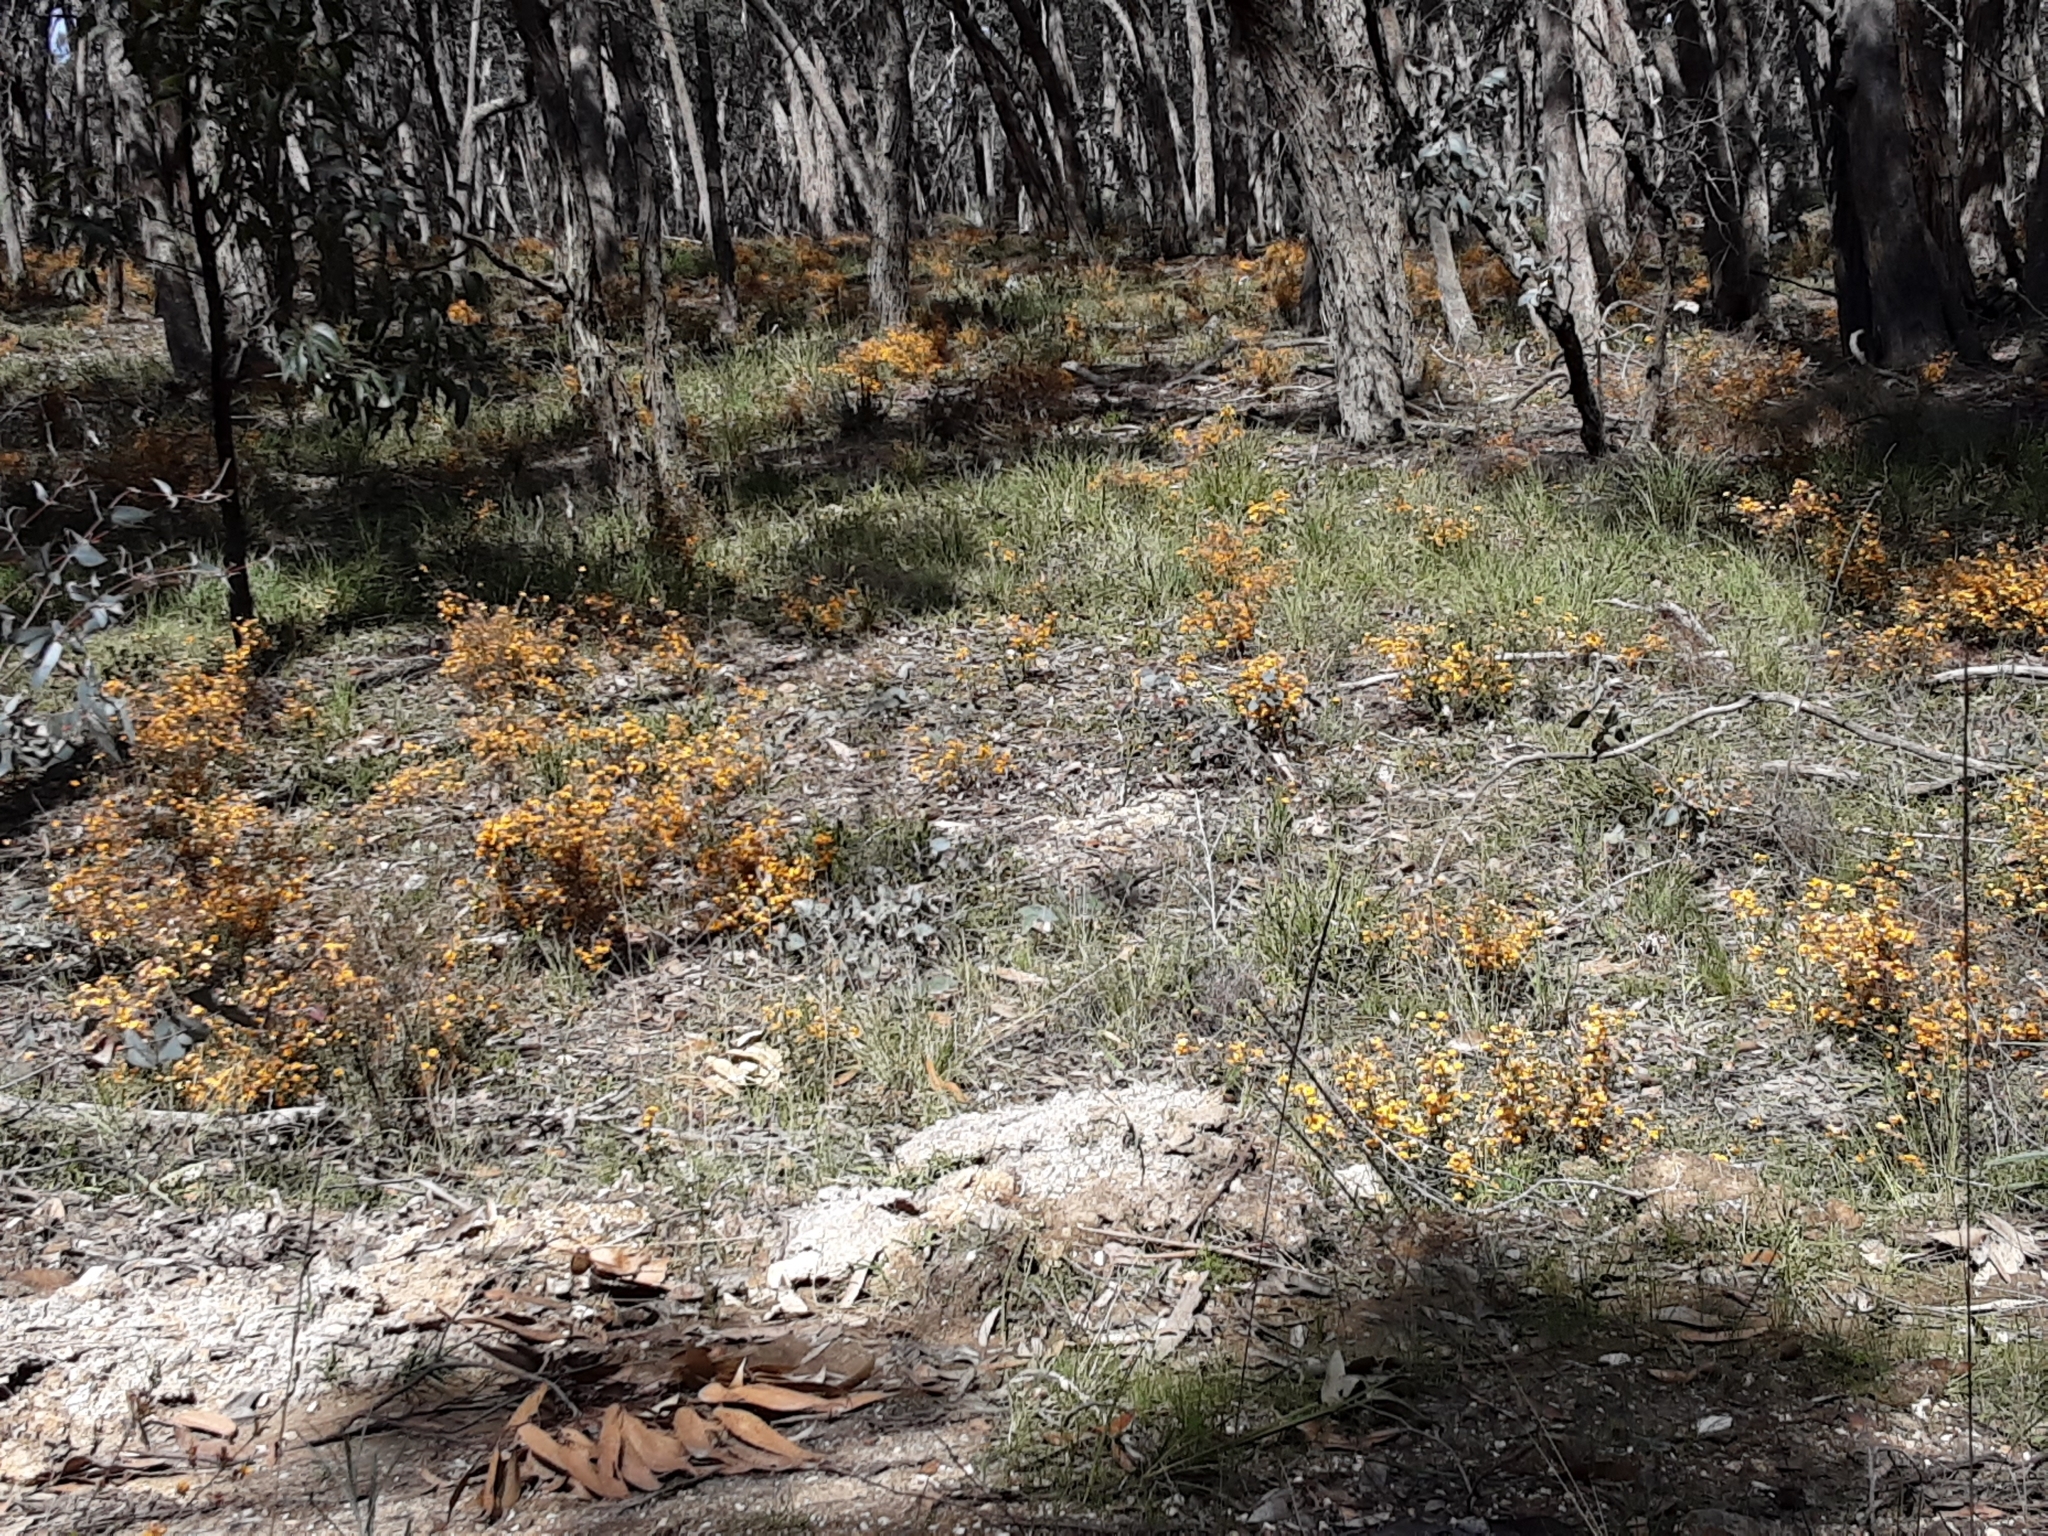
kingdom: Plantae
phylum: Tracheophyta
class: Magnoliopsida
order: Fabales
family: Fabaceae
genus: Pultenaea
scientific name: Pultenaea gunnii
